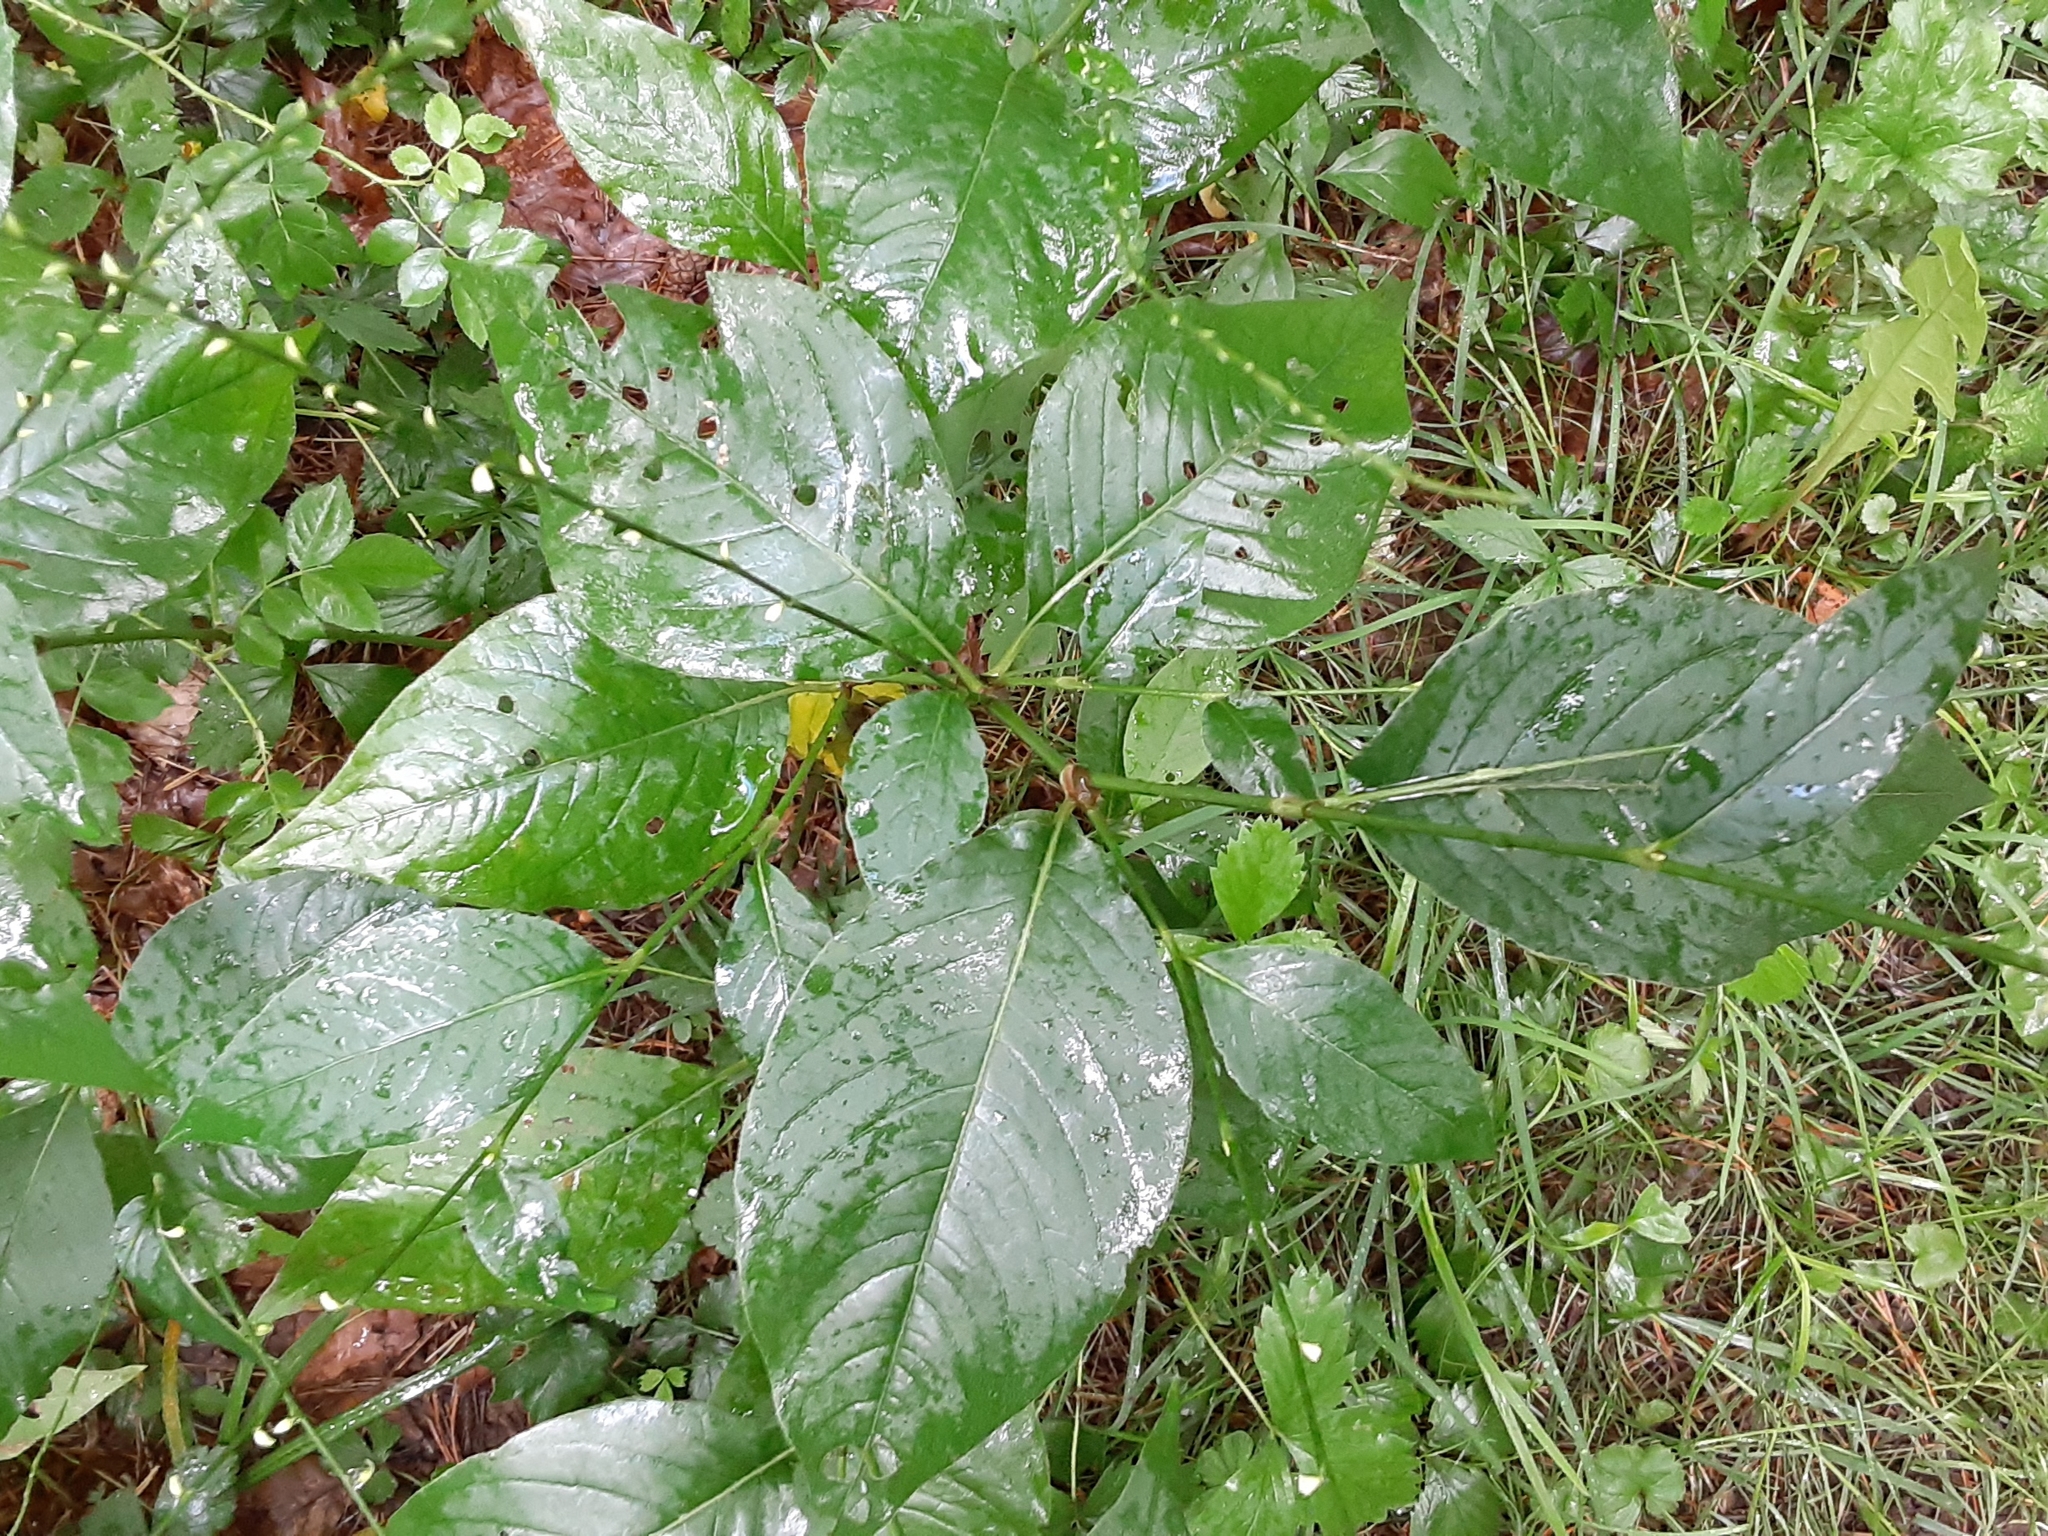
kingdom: Plantae
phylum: Tracheophyta
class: Magnoliopsida
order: Caryophyllales
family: Polygonaceae
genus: Persicaria
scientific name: Persicaria virginiana
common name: Jumpseed
